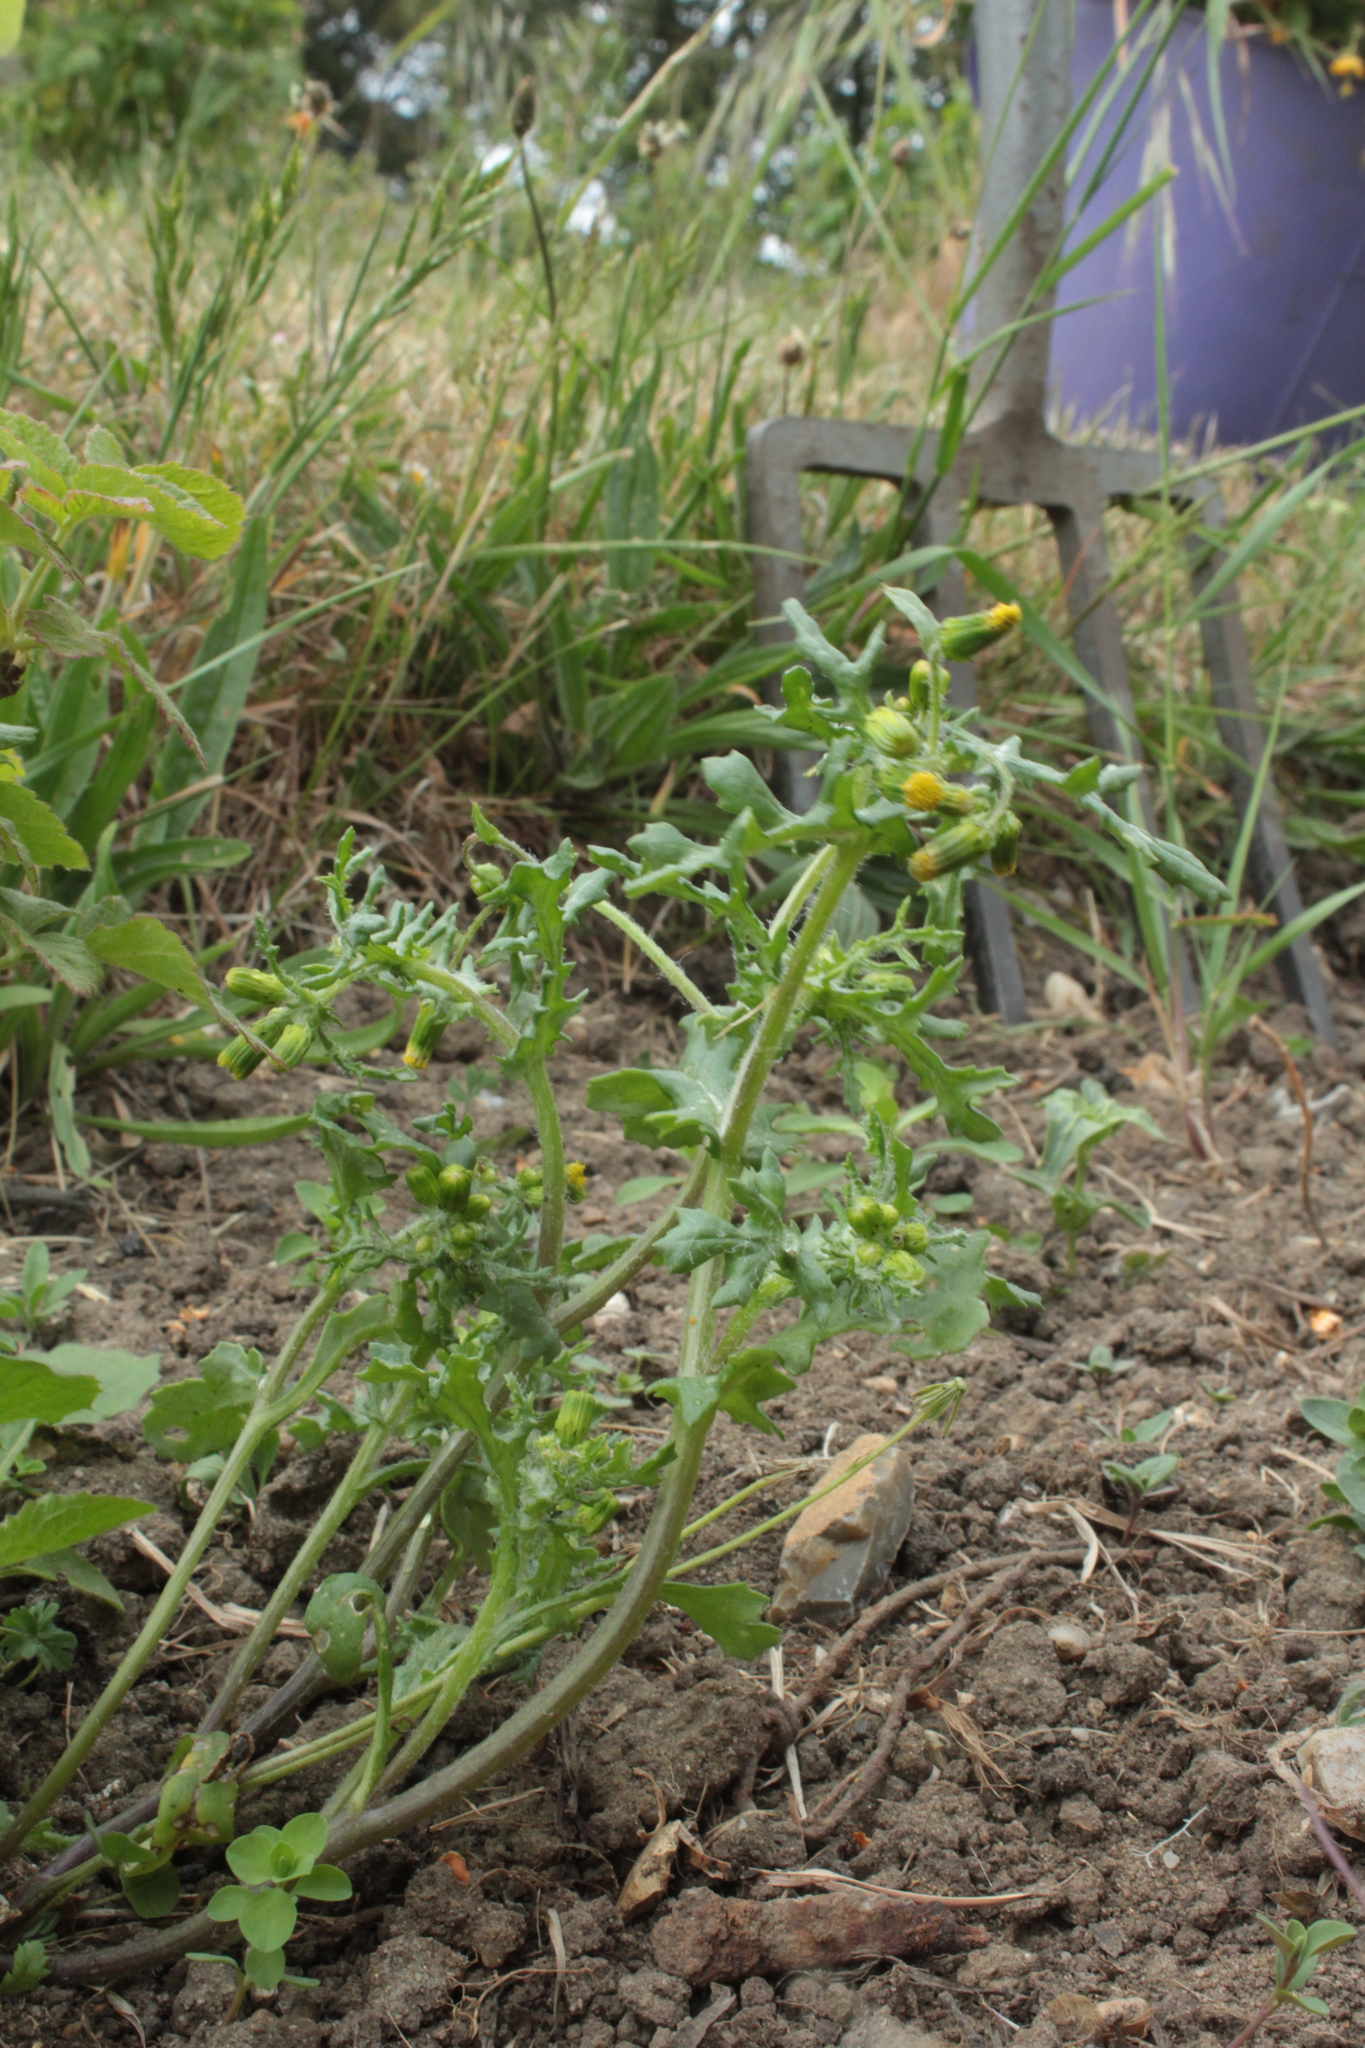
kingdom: Plantae
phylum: Tracheophyta
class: Magnoliopsida
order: Asterales
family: Asteraceae
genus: Senecio
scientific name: Senecio vulgaris
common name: Old-man-in-the-spring
